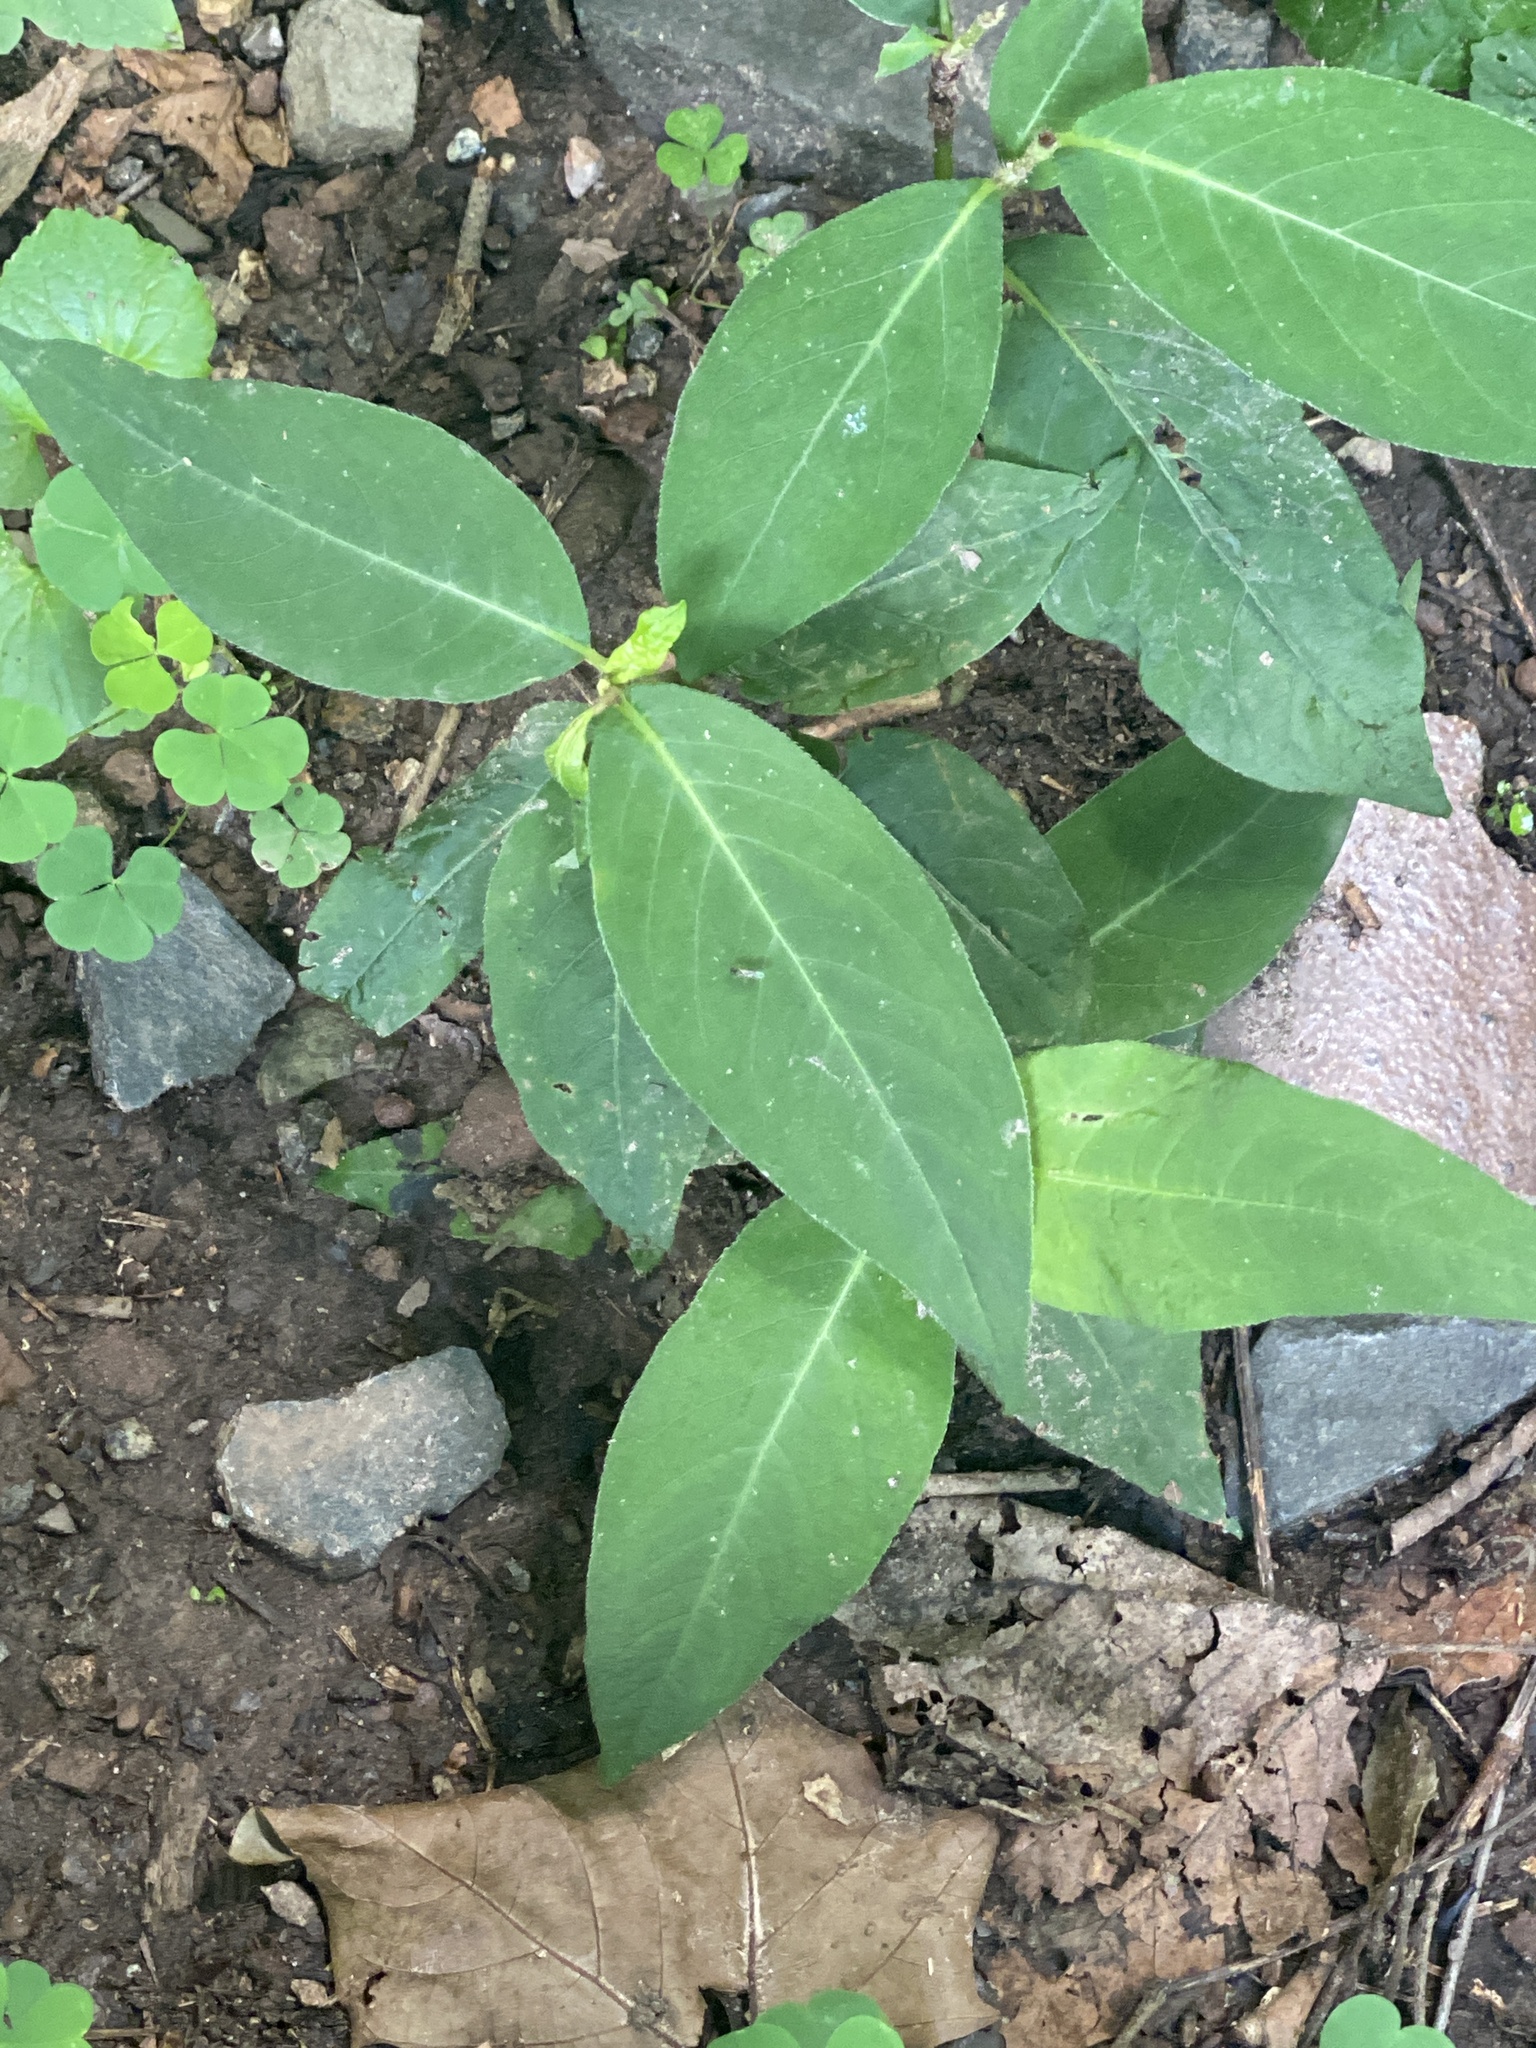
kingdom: Plantae
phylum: Tracheophyta
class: Magnoliopsida
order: Caryophyllales
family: Polygonaceae
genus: Persicaria
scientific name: Persicaria virginiana
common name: Jumpseed
